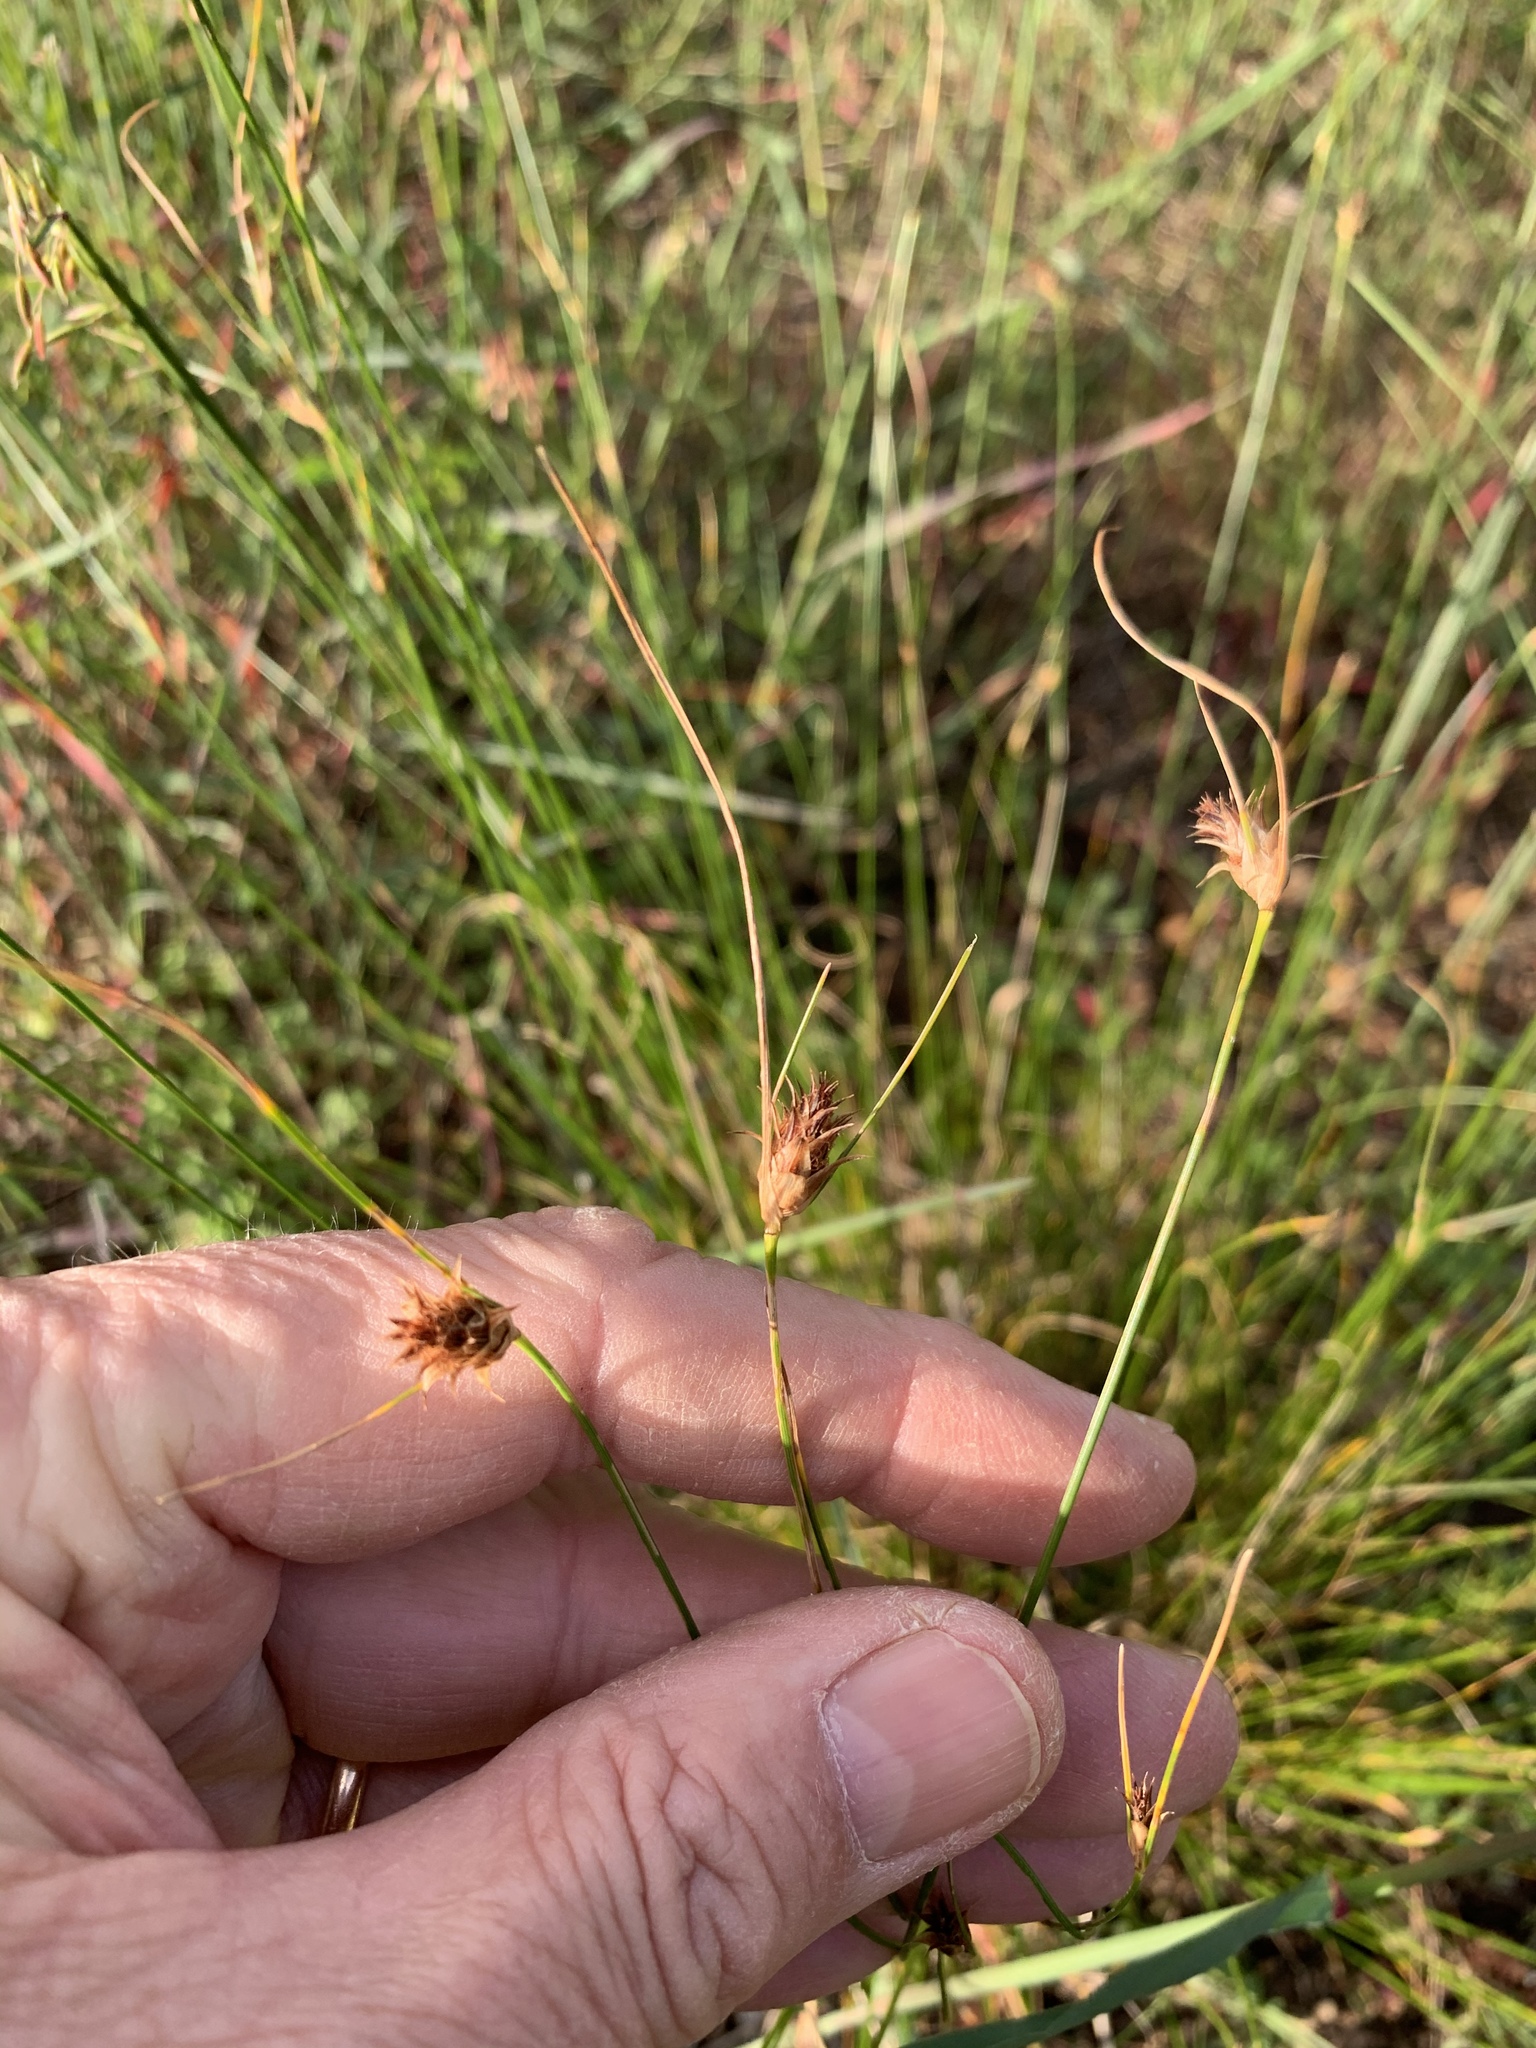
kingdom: Plantae
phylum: Tracheophyta
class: Liliopsida
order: Poales
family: Cyperaceae
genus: Ficinia
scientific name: Ficinia nigrescens
